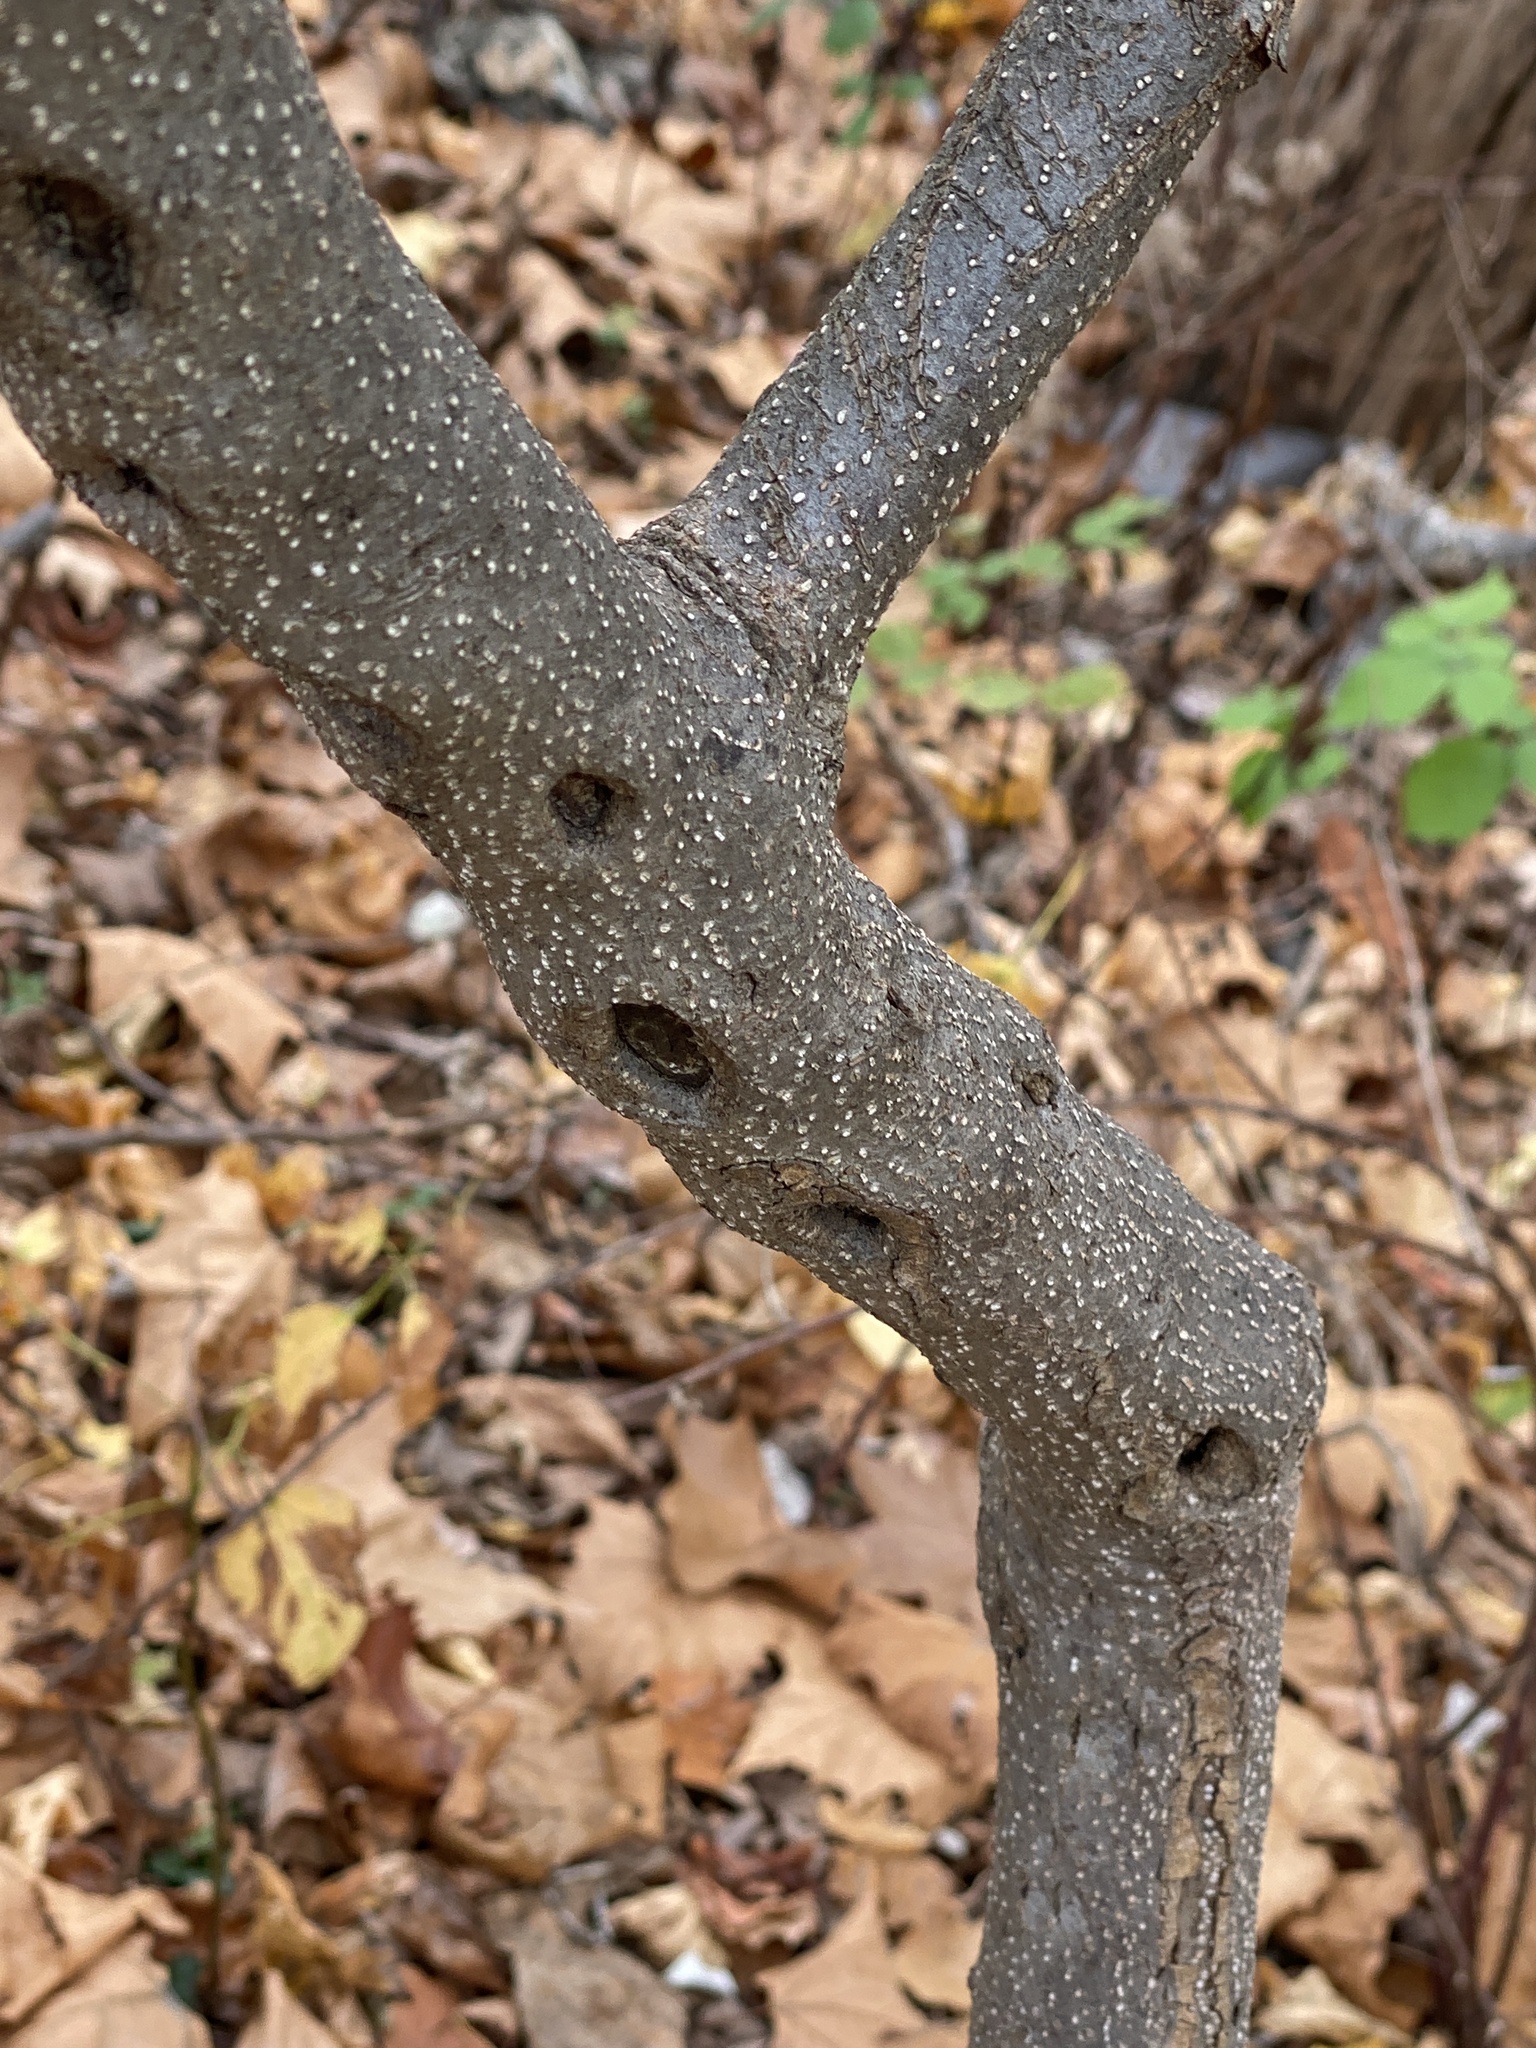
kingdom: Plantae
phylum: Tracheophyta
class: Magnoliopsida
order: Laurales
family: Lauraceae
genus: Lindera
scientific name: Lindera benzoin
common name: Spicebush
